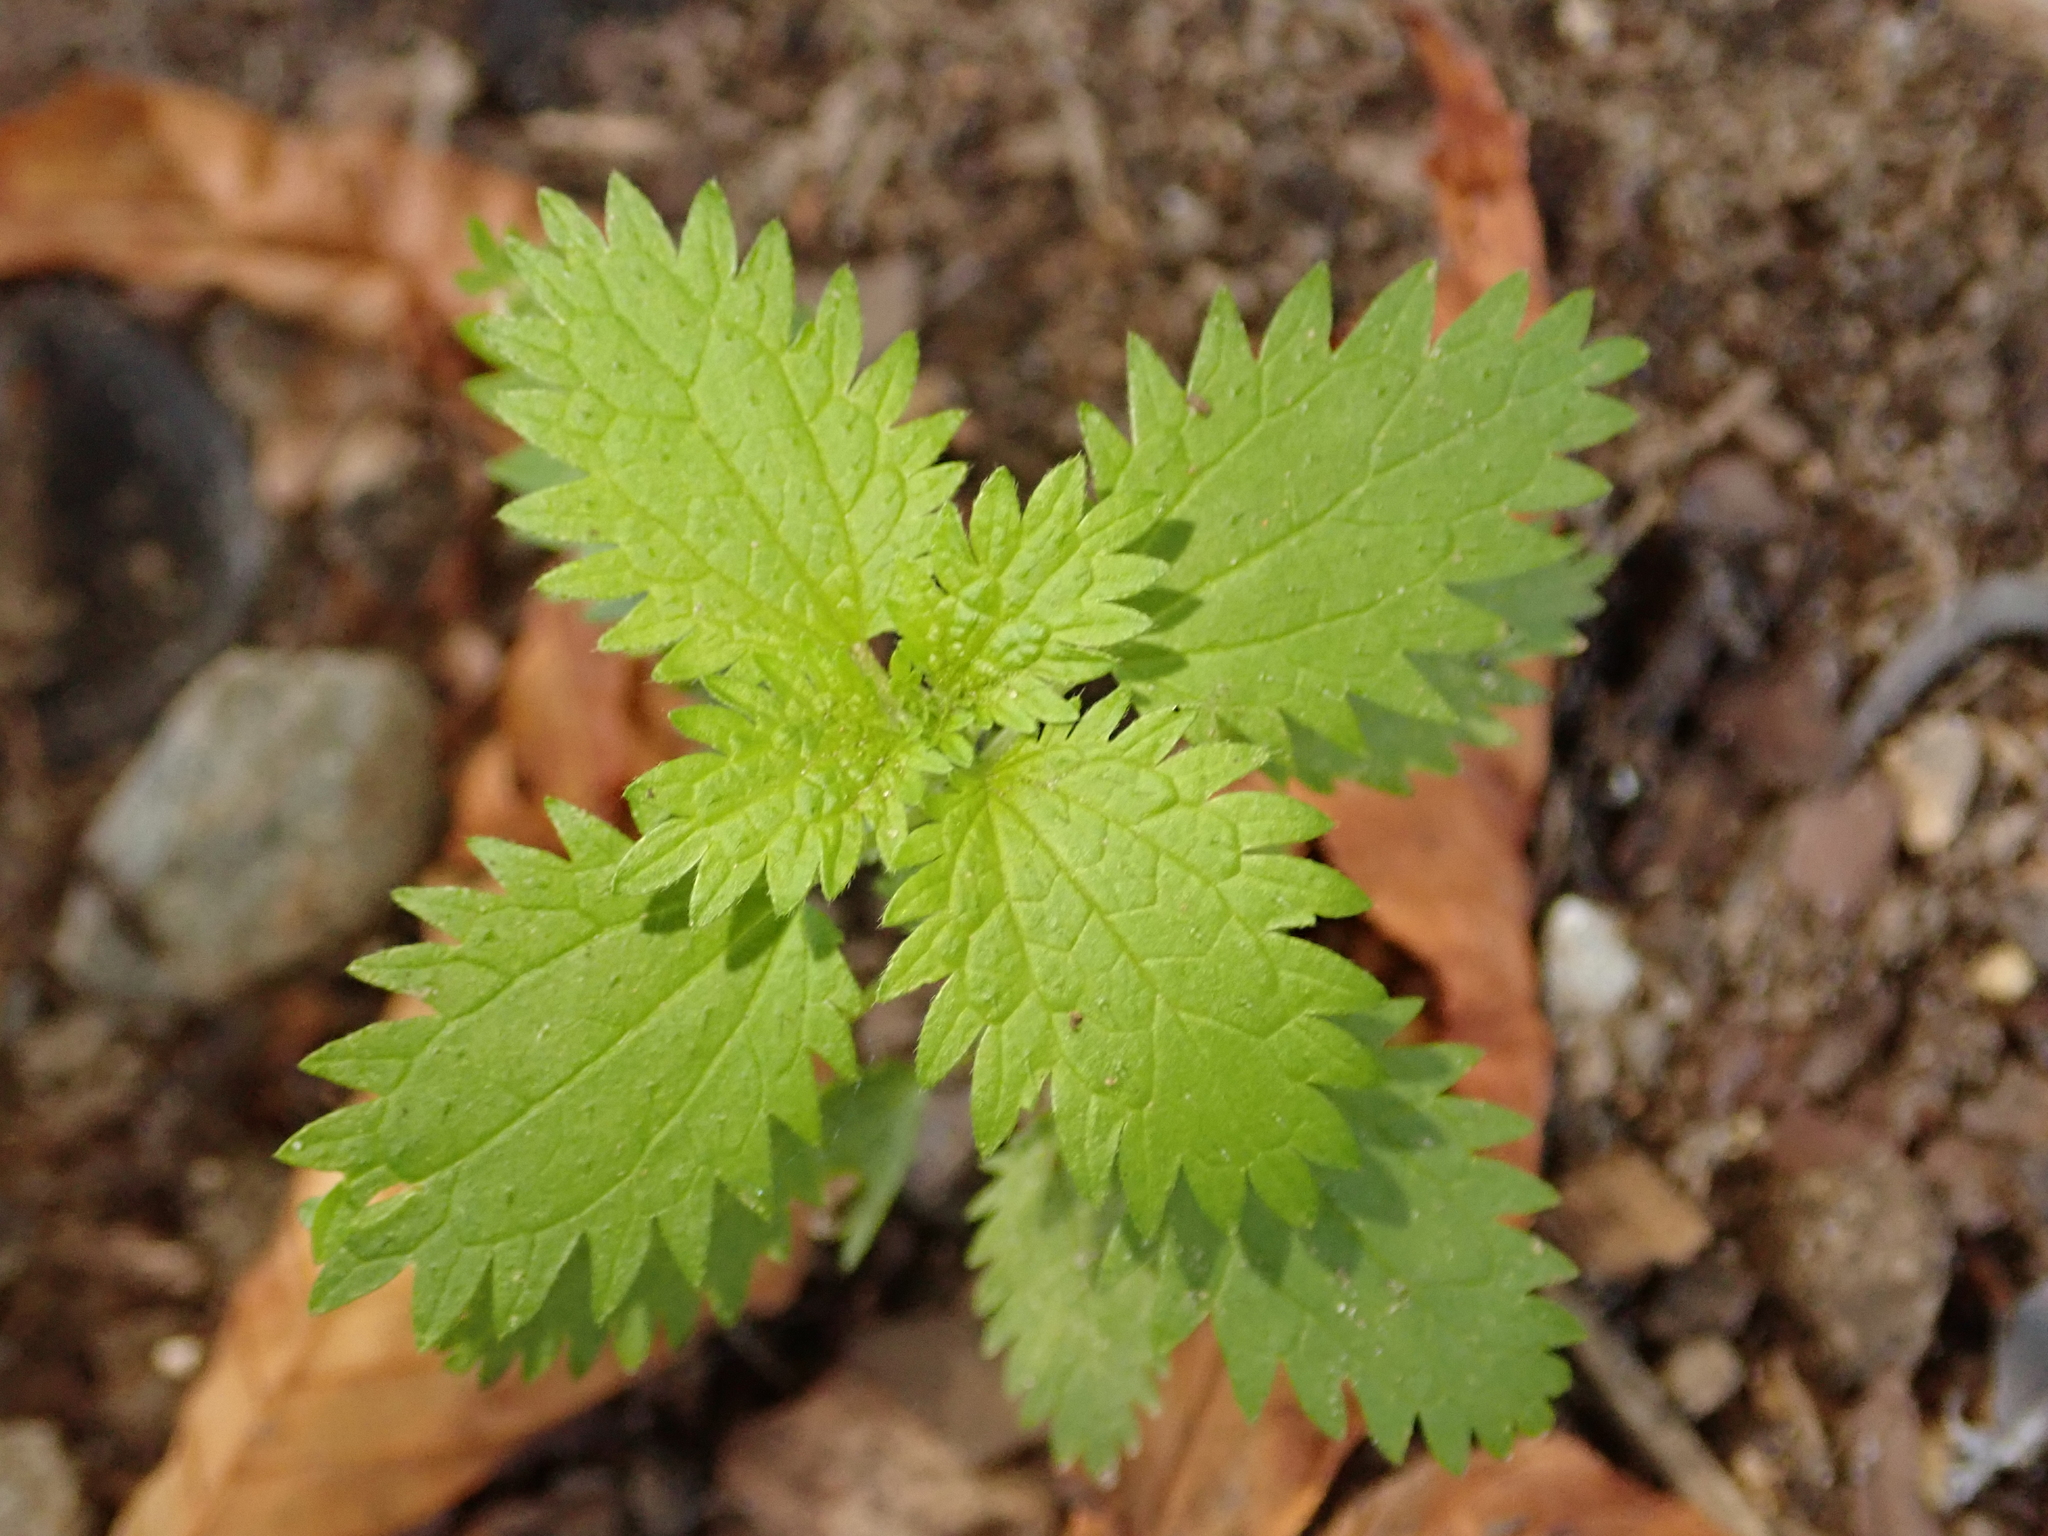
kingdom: Plantae
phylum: Tracheophyta
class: Magnoliopsida
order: Rosales
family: Urticaceae
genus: Urtica
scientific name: Urtica urens
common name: Dwarf nettle
